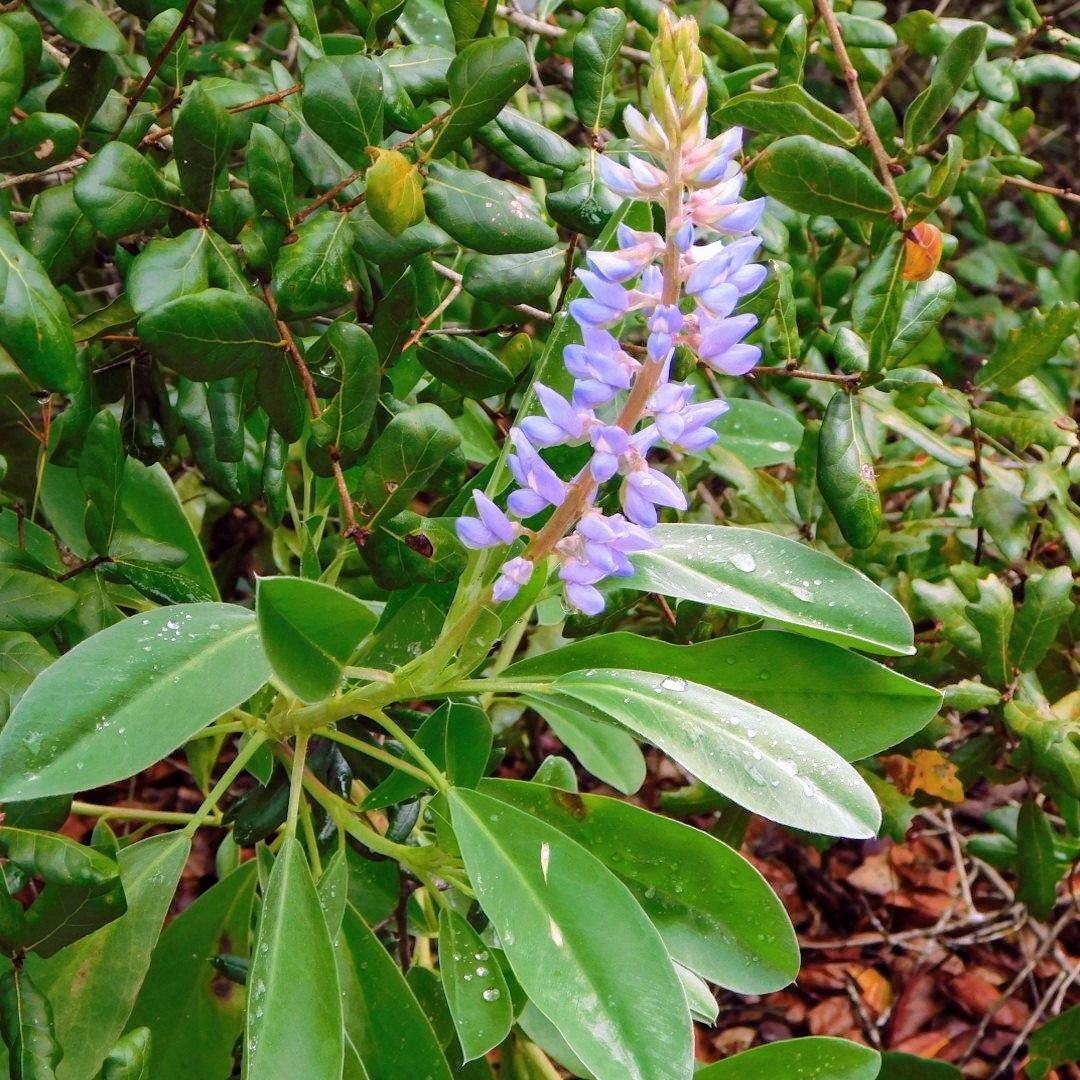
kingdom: Plantae
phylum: Tracheophyta
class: Magnoliopsida
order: Fabales
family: Fabaceae
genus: Lupinus
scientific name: Lupinus
